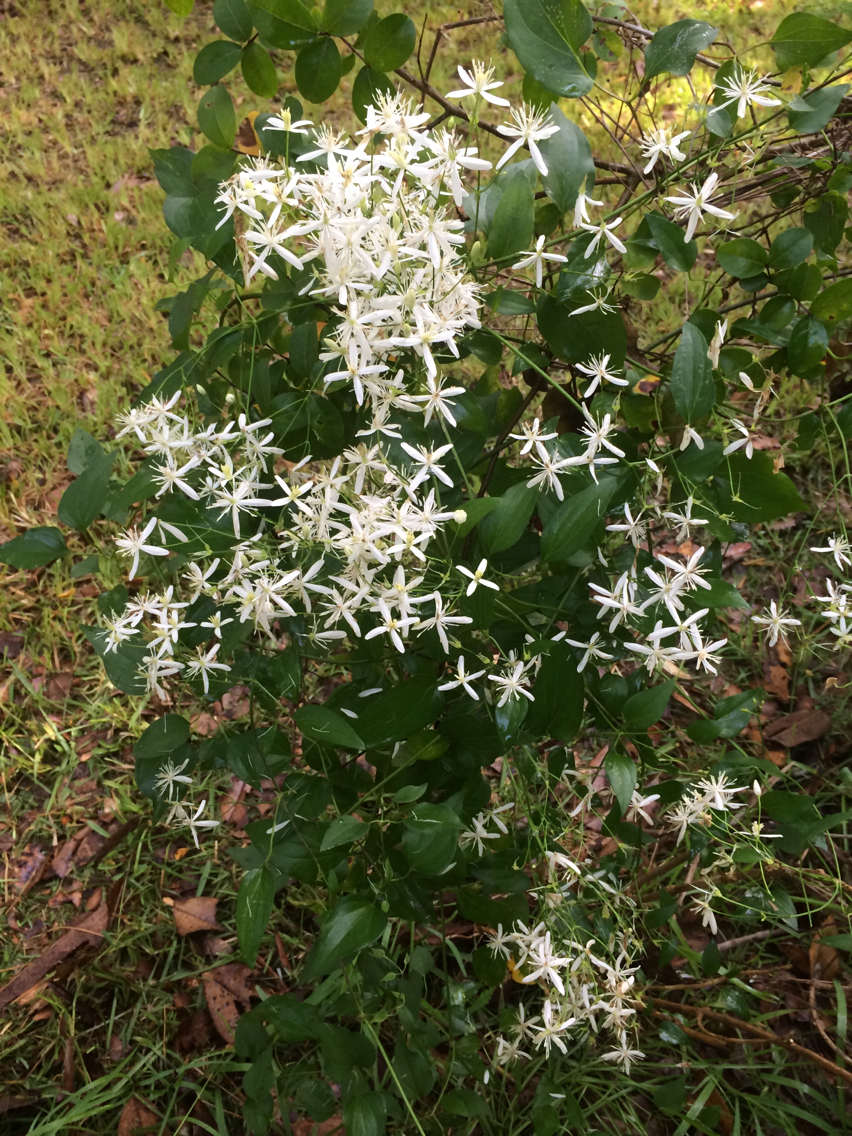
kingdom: Plantae
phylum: Tracheophyta
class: Magnoliopsida
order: Ranunculales
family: Ranunculaceae
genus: Clematis
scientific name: Clematis terniflora
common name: Sweet autumn clematis
